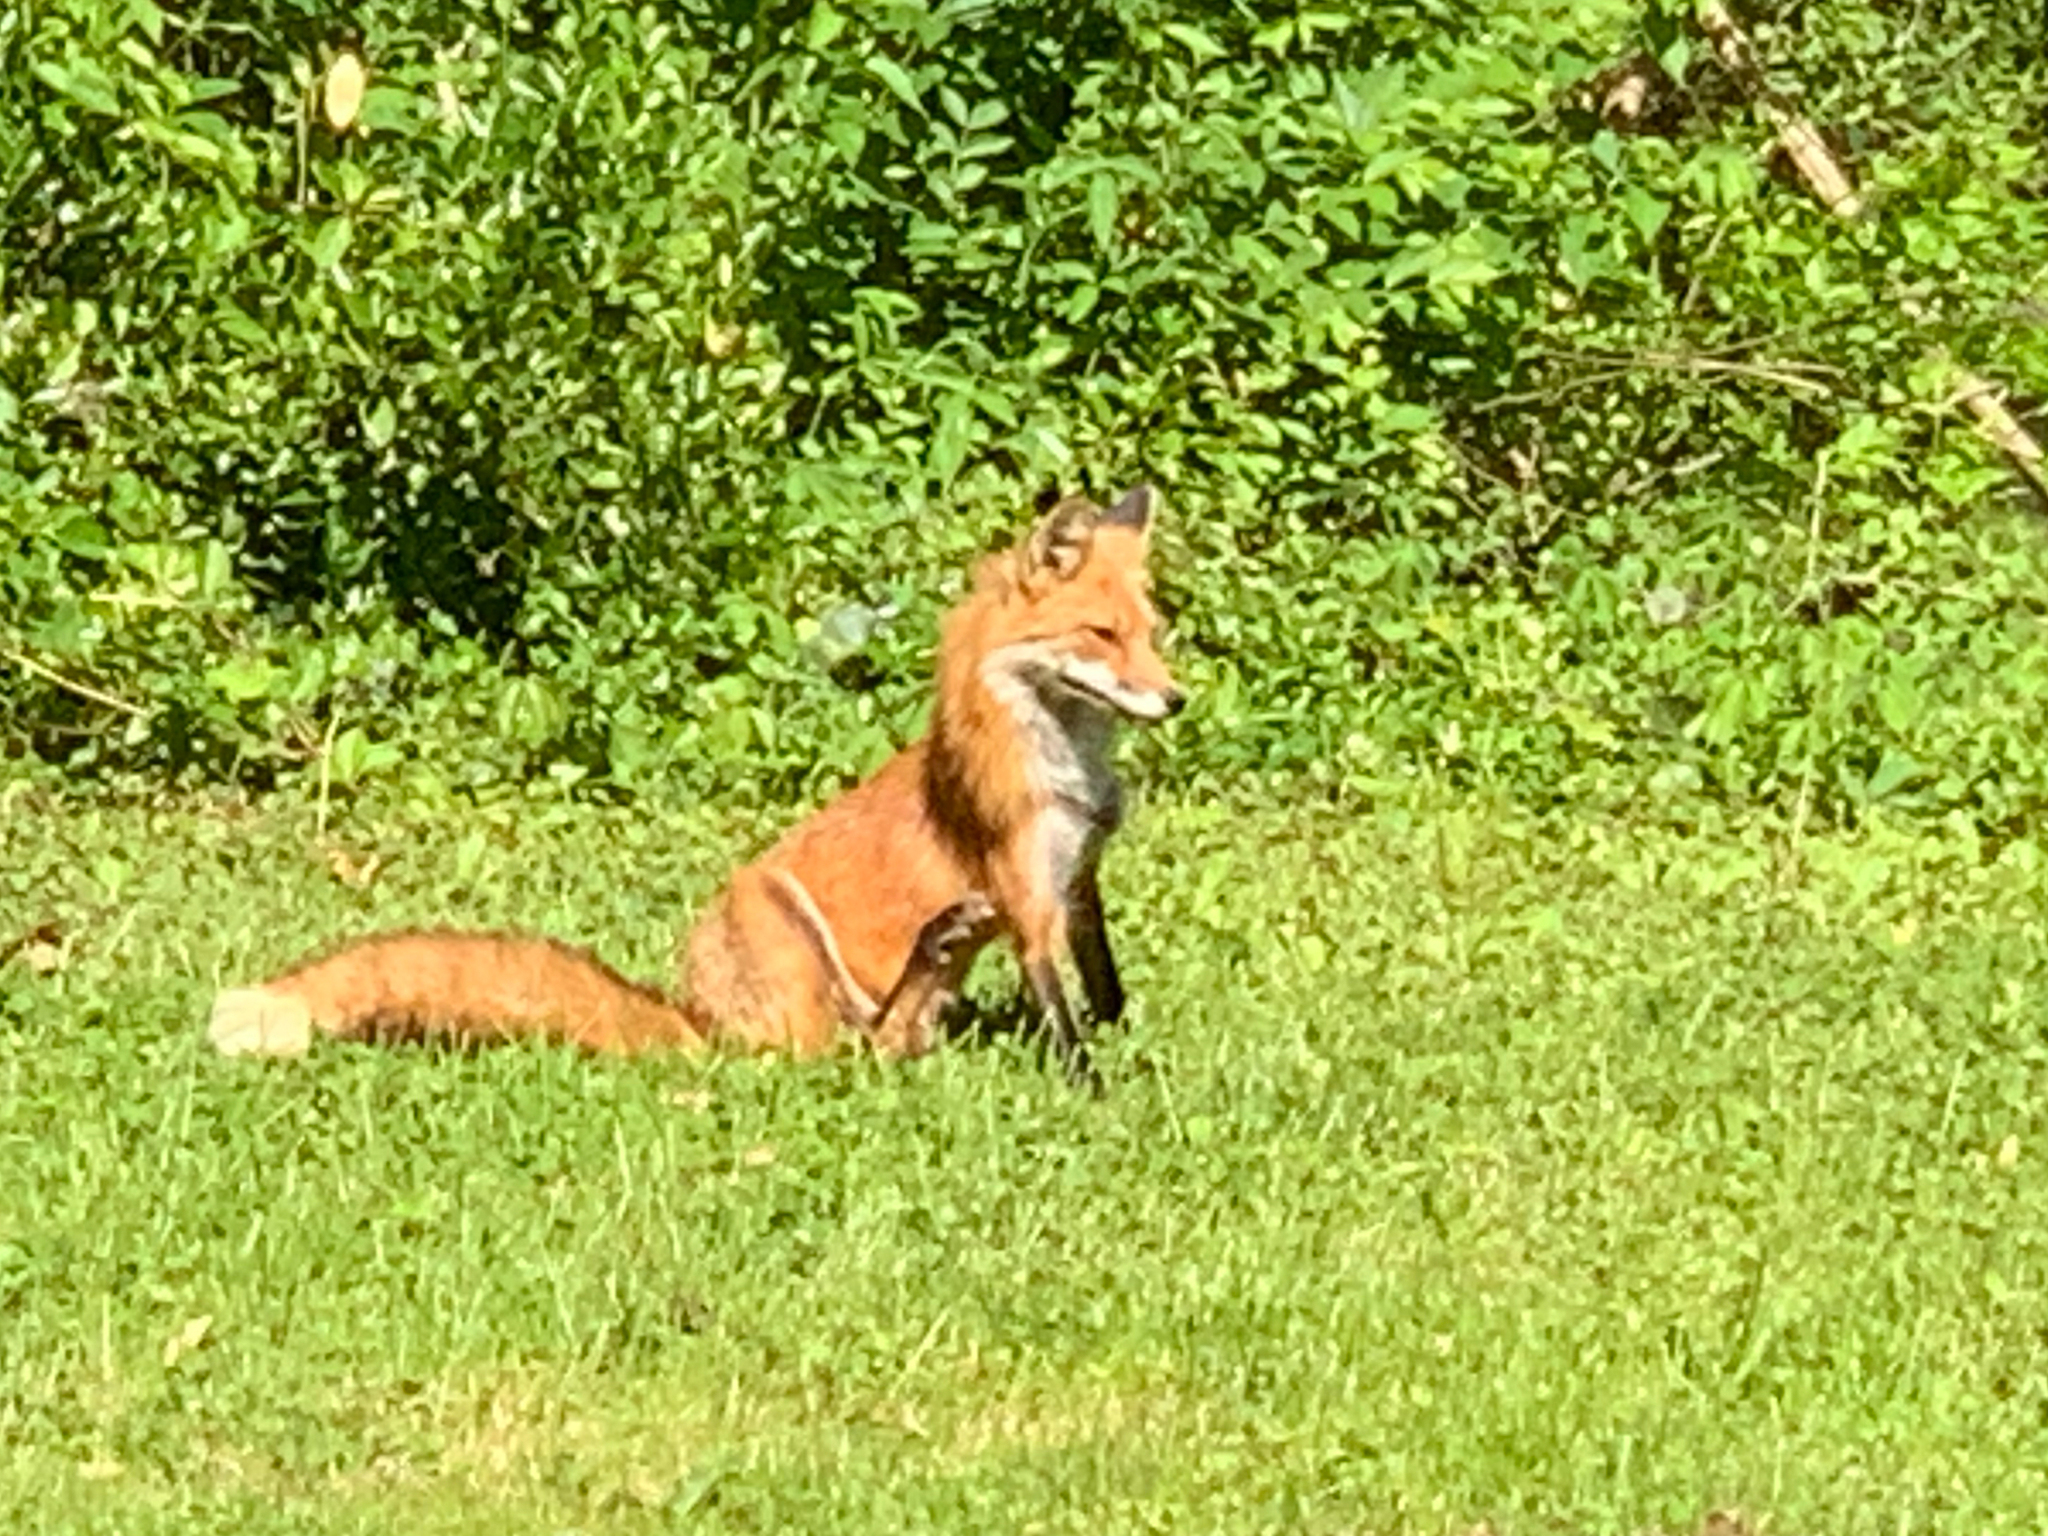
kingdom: Animalia
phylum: Chordata
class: Mammalia
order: Carnivora
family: Canidae
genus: Vulpes
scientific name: Vulpes vulpes
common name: Red fox
